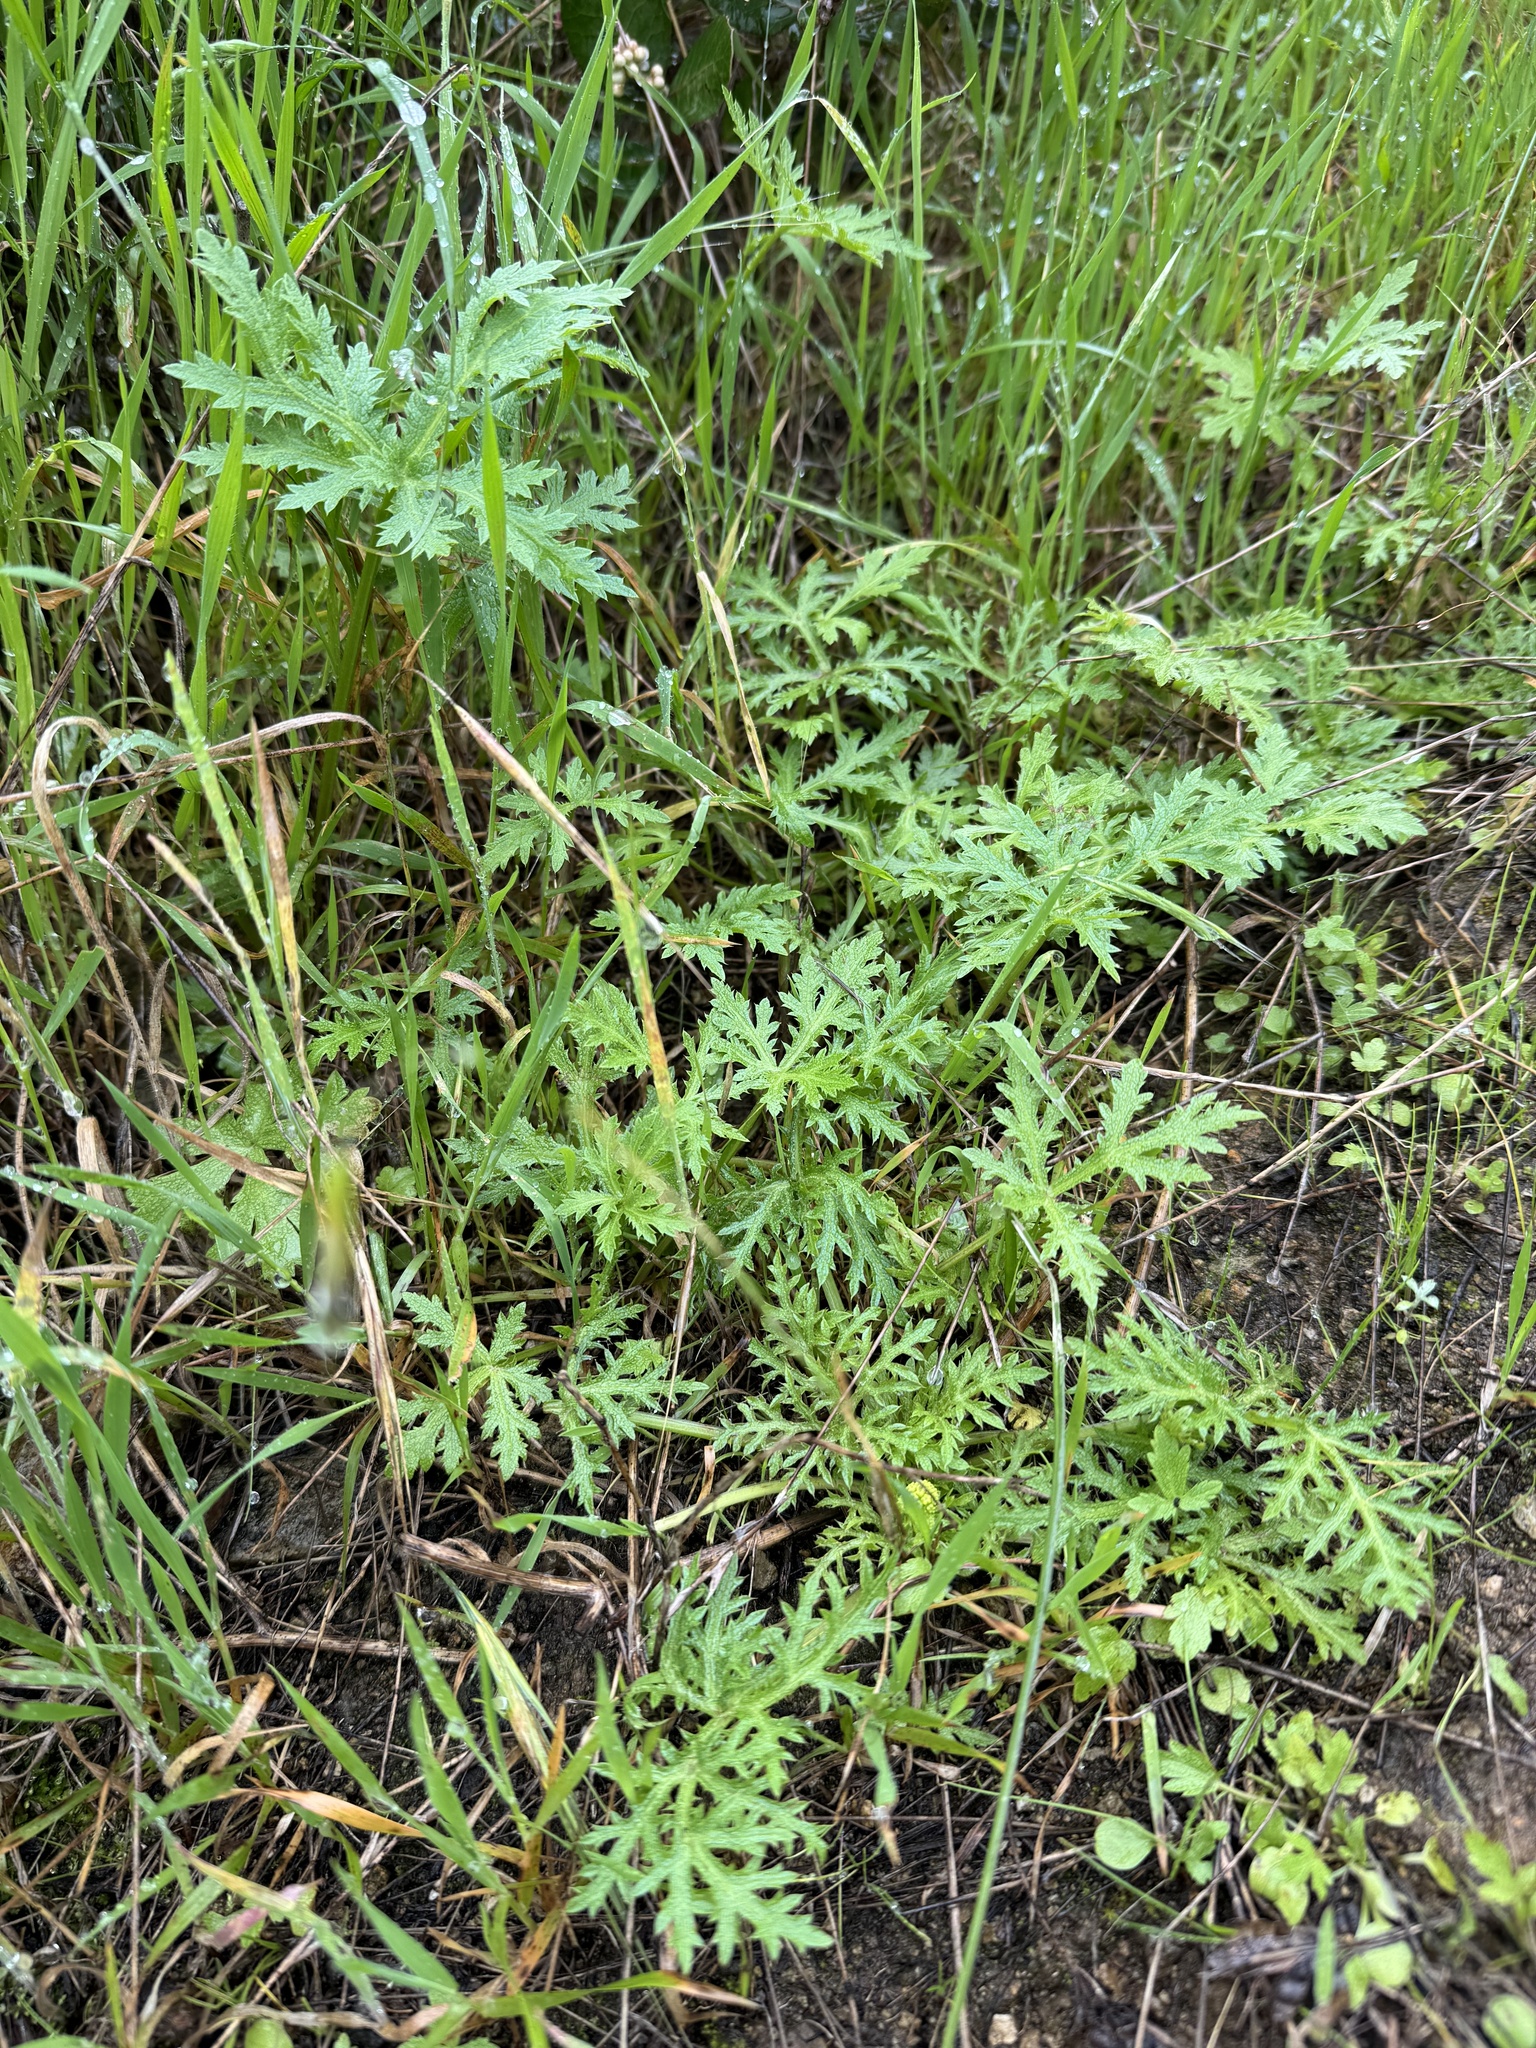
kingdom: Plantae
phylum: Tracheophyta
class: Magnoliopsida
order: Apiales
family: Apiaceae
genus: Sanicula
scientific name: Sanicula arguta
